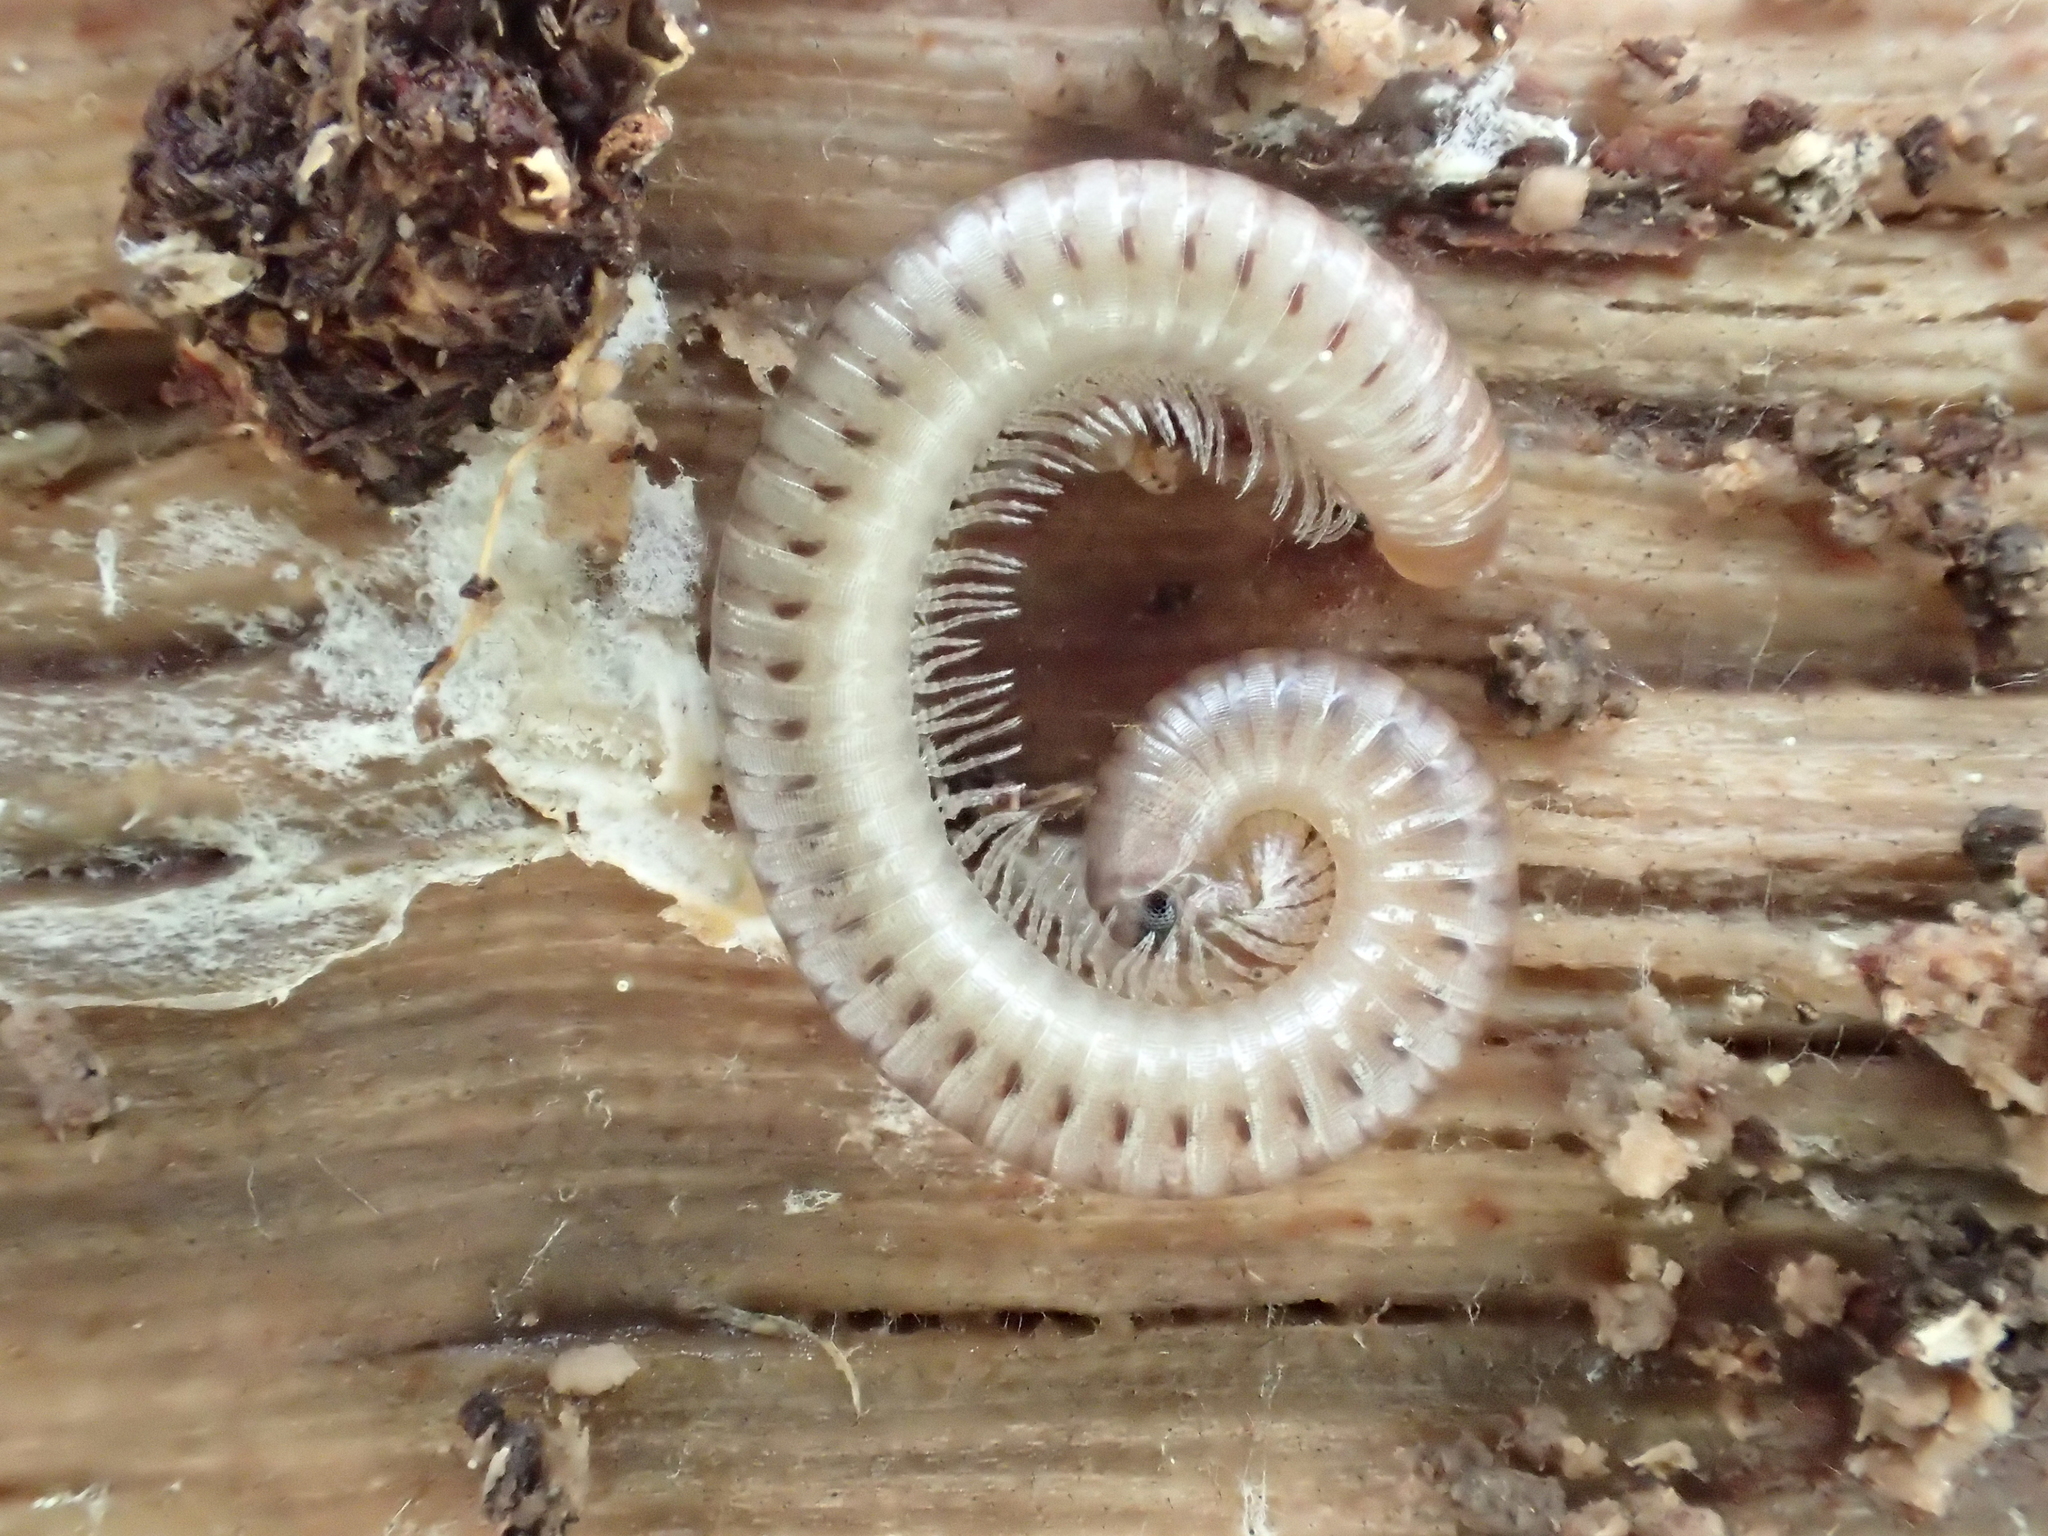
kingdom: Animalia
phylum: Arthropoda
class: Diplopoda
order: Julida
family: Julidae
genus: Cylindroiulus
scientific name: Cylindroiulus punctatus
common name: Blunt-tailed millipede
